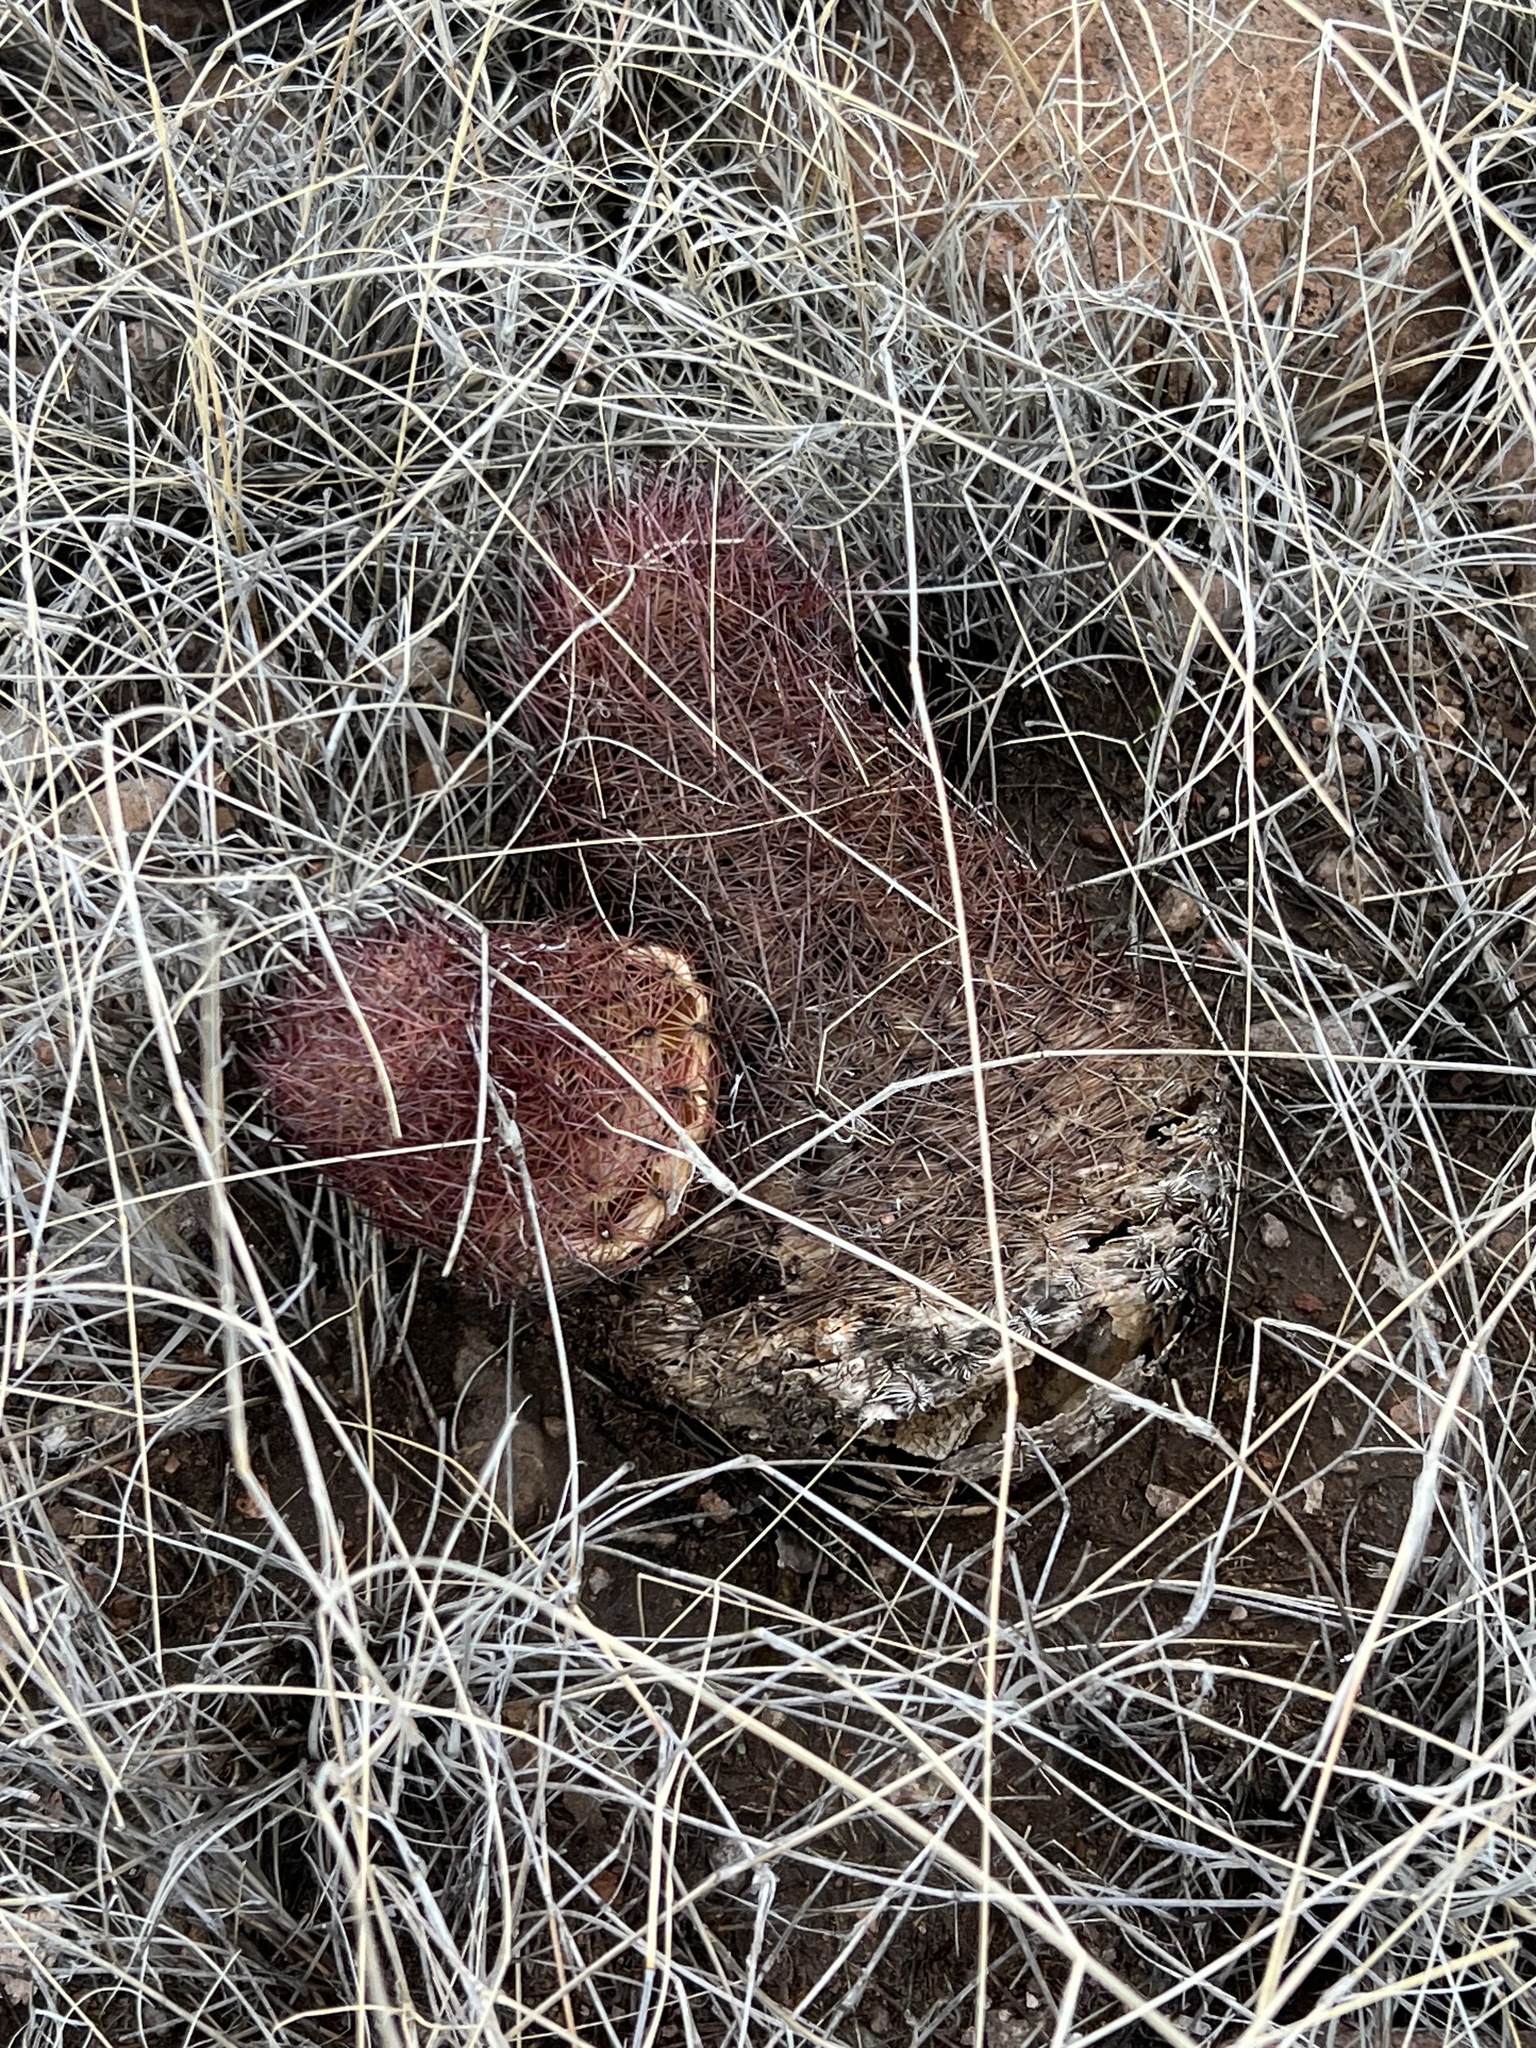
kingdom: Plantae
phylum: Tracheophyta
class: Magnoliopsida
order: Caryophyllales
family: Cactaceae
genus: Sclerocactus
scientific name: Sclerocactus johnsonii
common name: Eight-spine fishhook cactus
